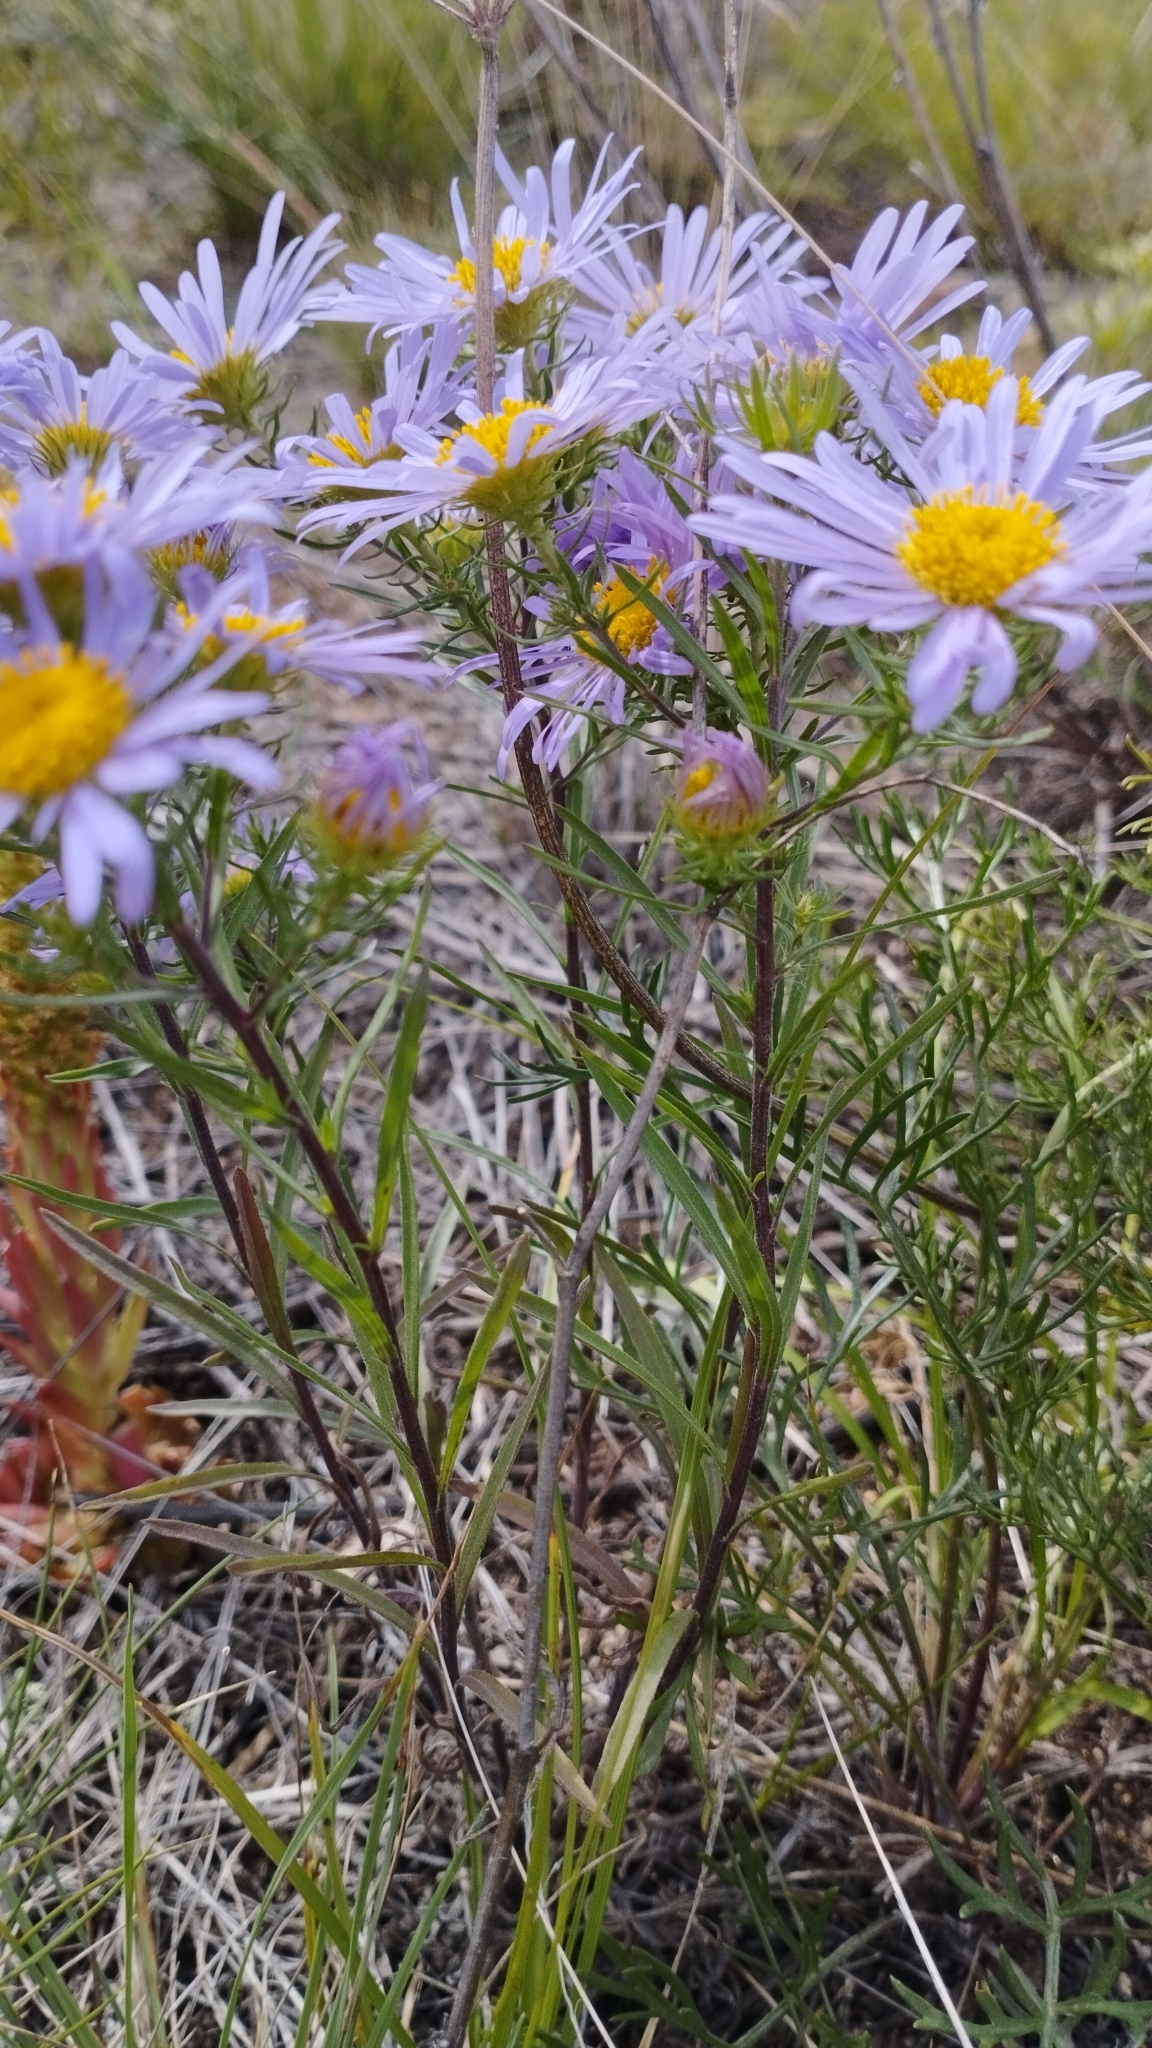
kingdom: Plantae
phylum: Tracheophyta
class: Magnoliopsida
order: Asterales
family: Asteraceae
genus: Aster
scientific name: Aster biennis
